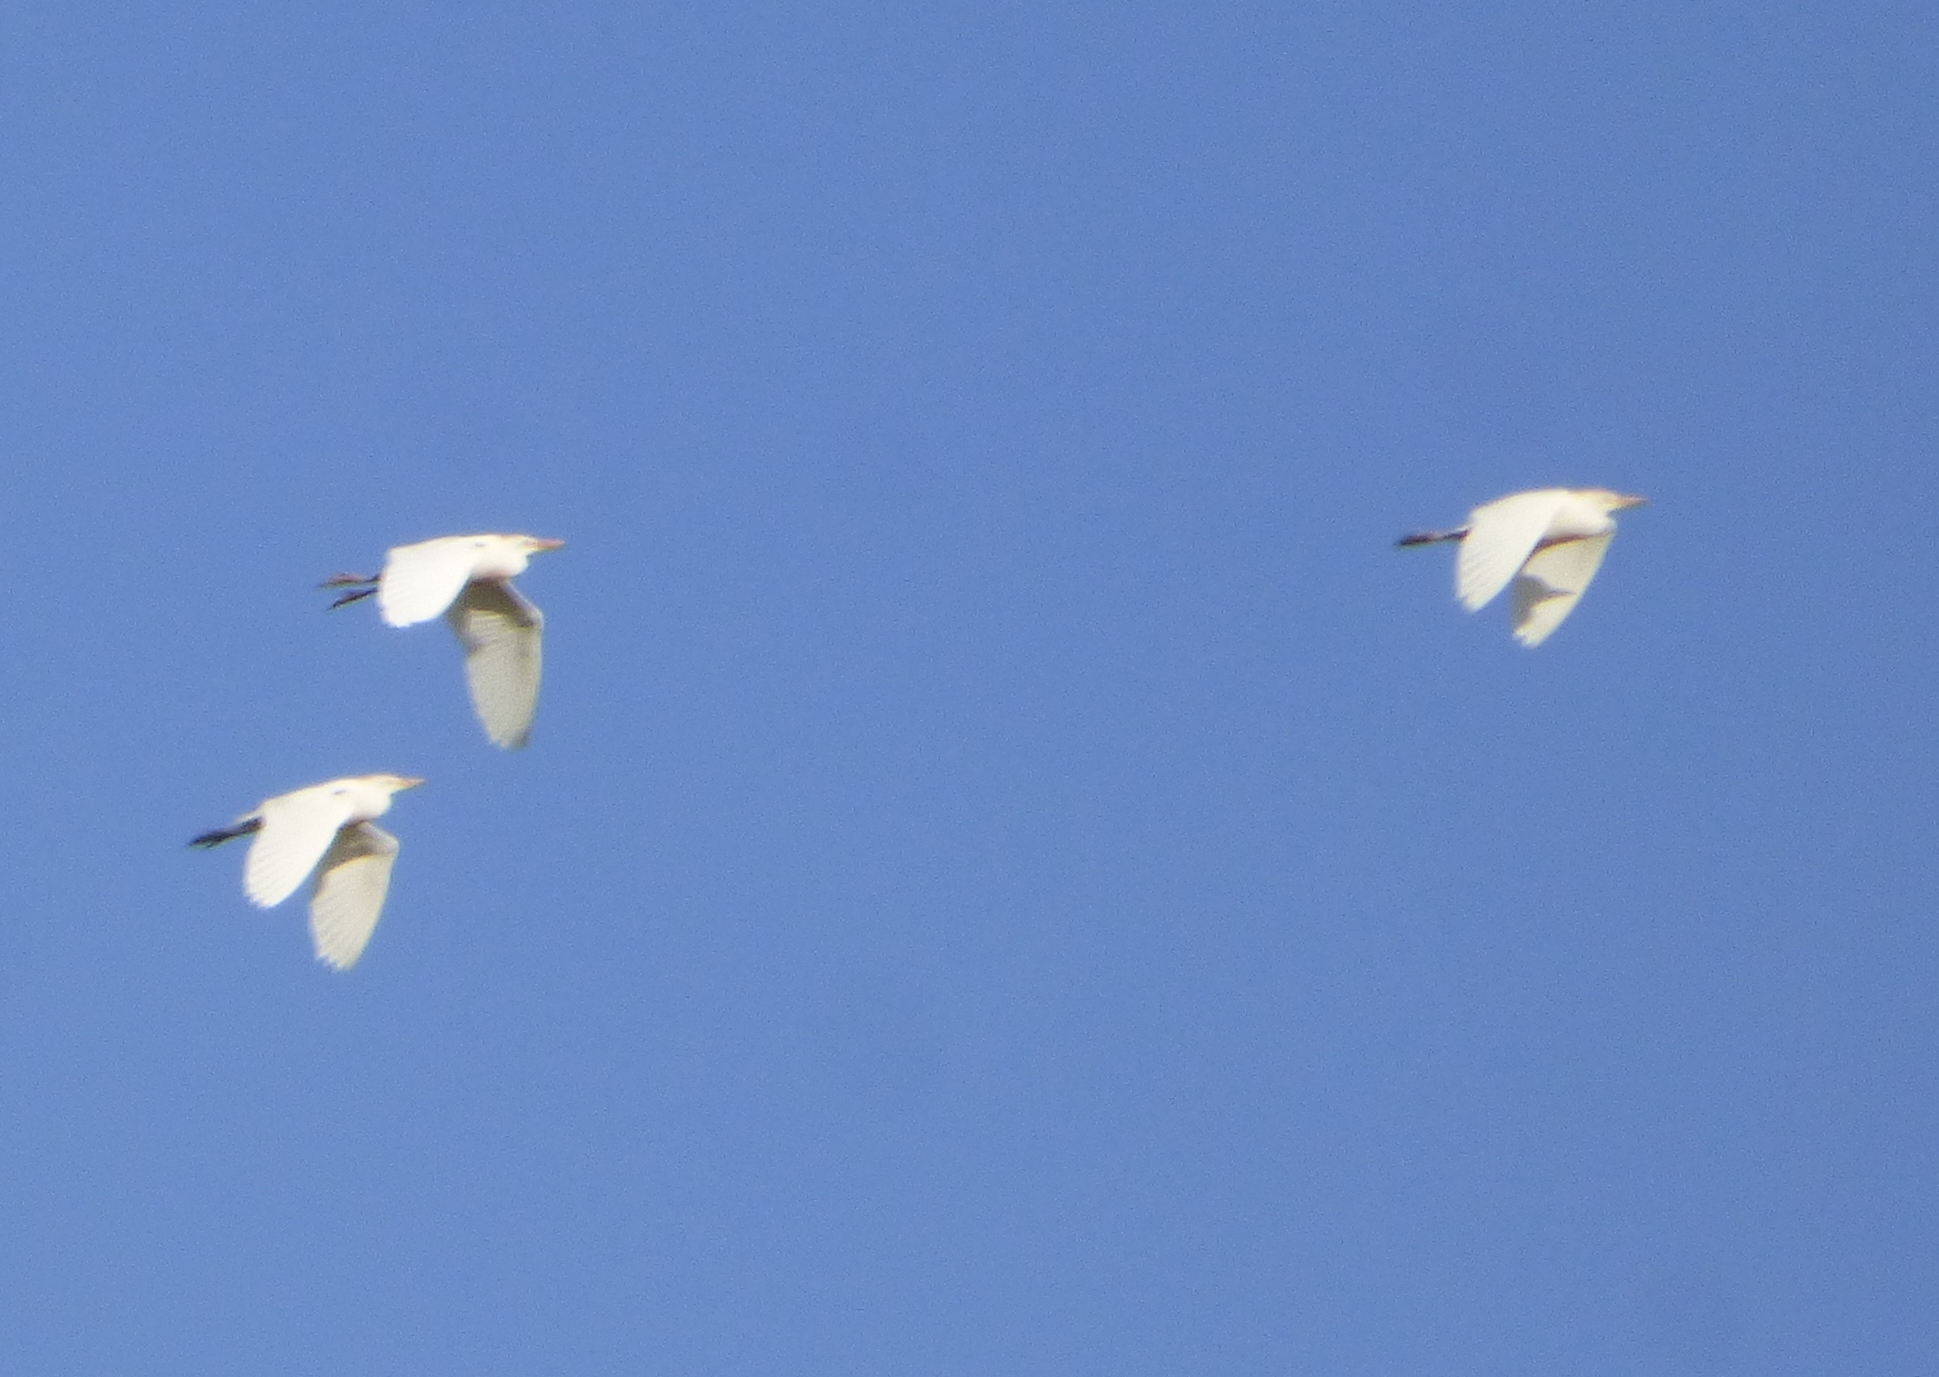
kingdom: Animalia
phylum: Chordata
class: Aves
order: Pelecaniformes
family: Ardeidae
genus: Bubulcus
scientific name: Bubulcus ibis
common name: Cattle egret
